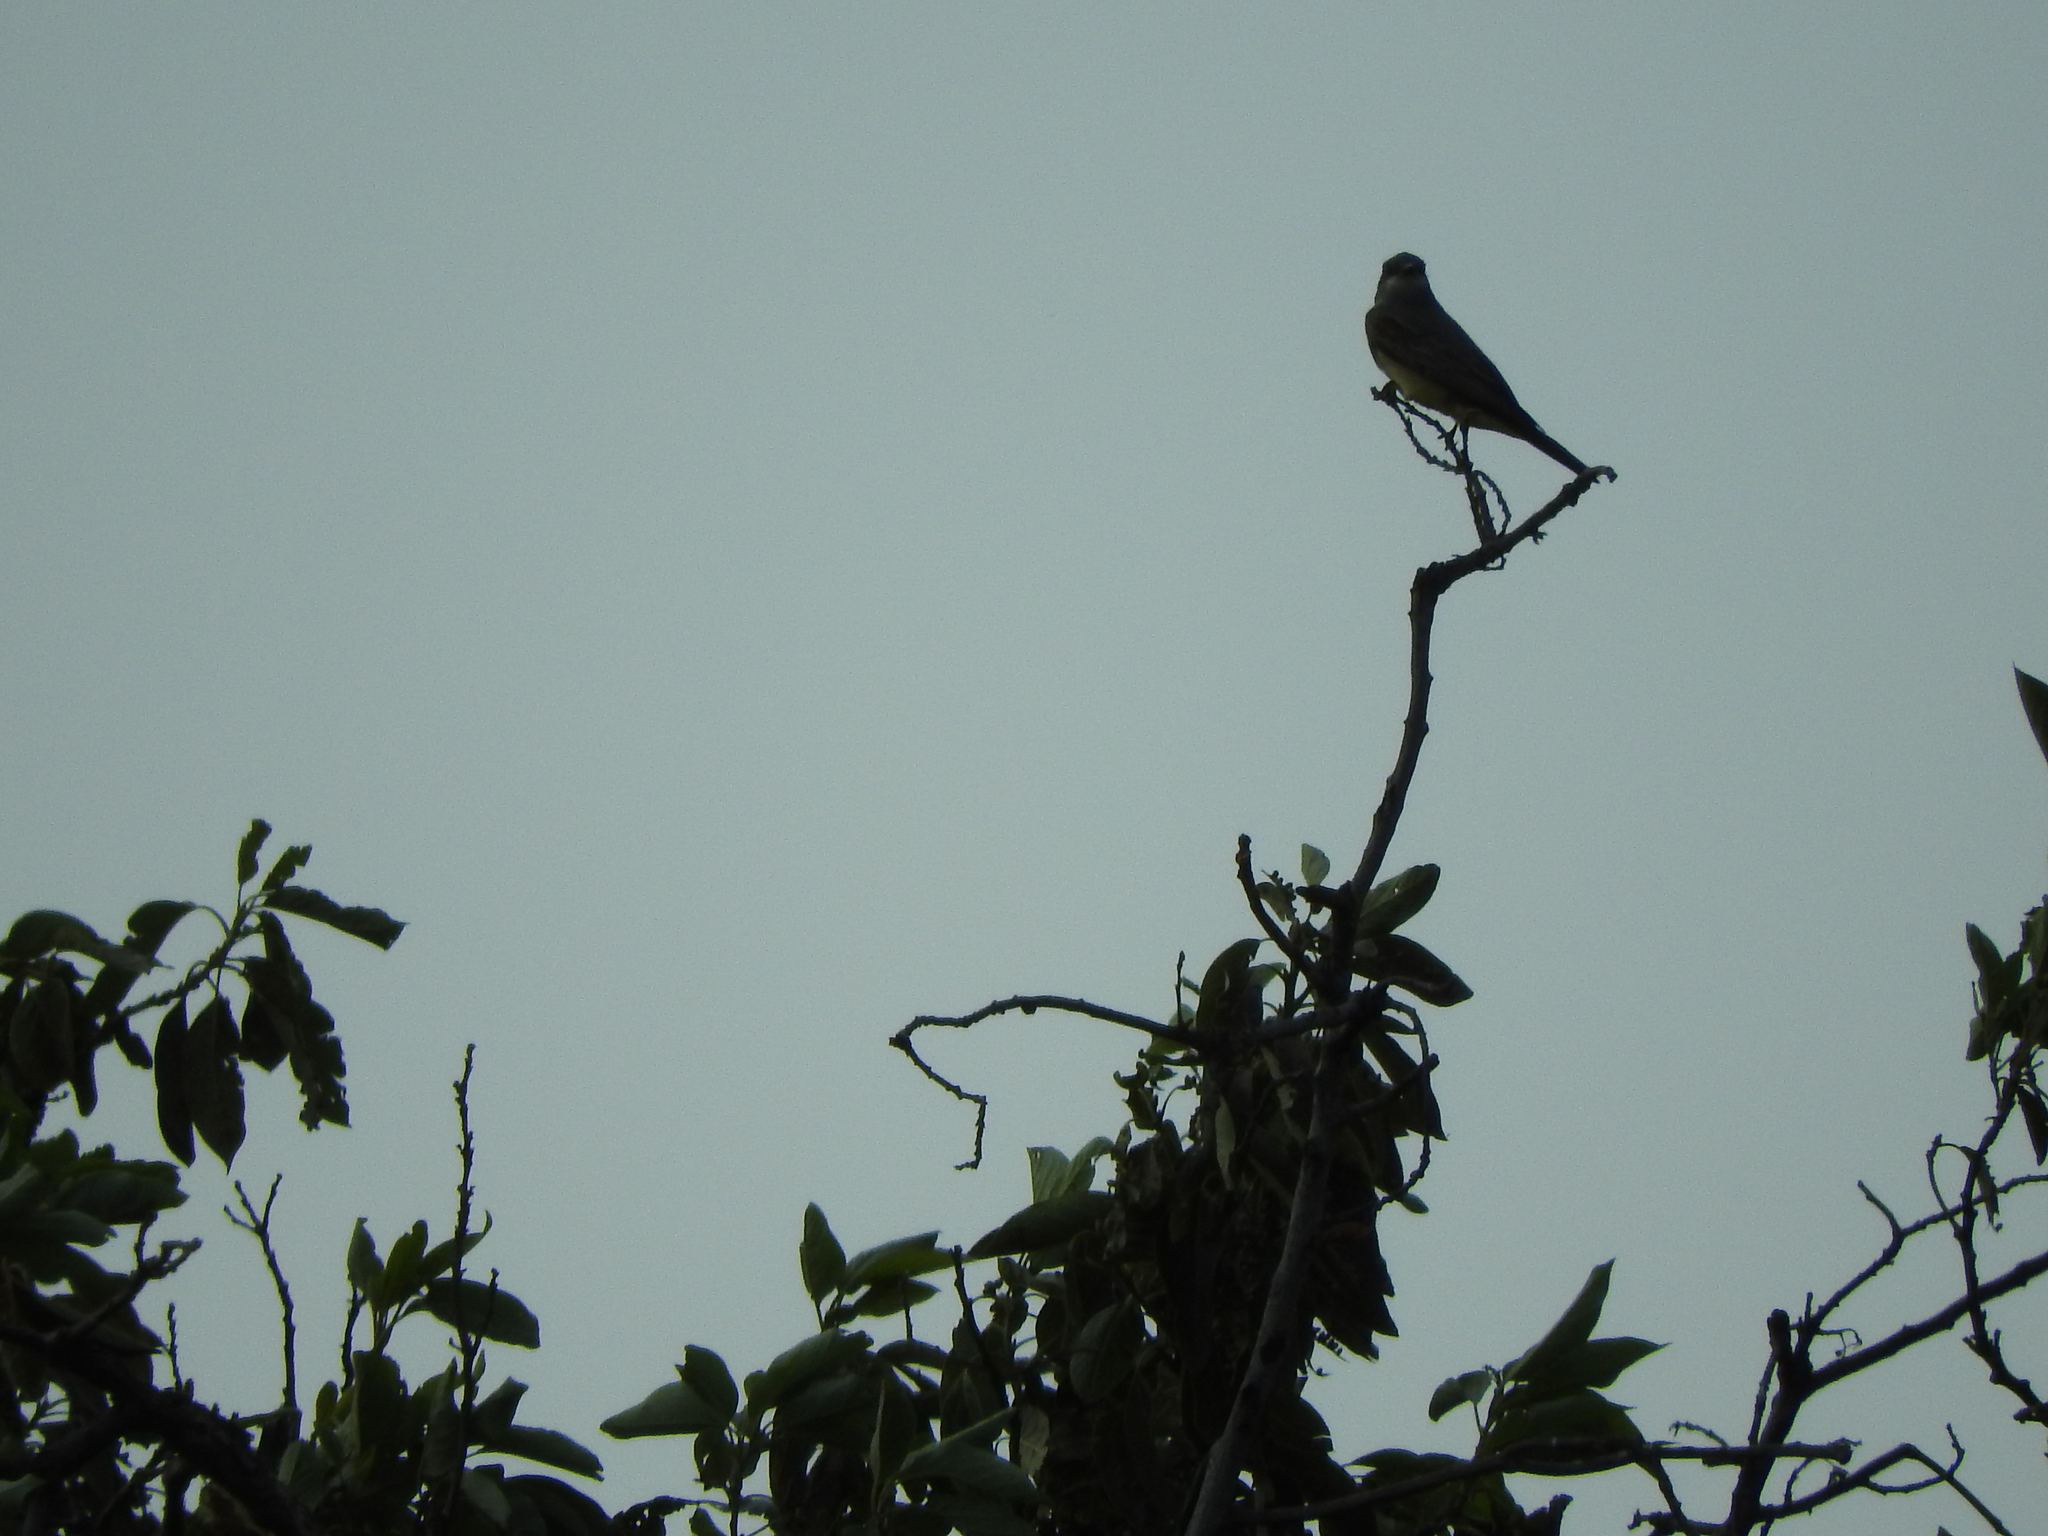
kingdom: Animalia
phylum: Chordata
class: Aves
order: Passeriformes
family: Tyrannidae
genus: Tyrannus
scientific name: Tyrannus vociferans
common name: Cassin's kingbird
